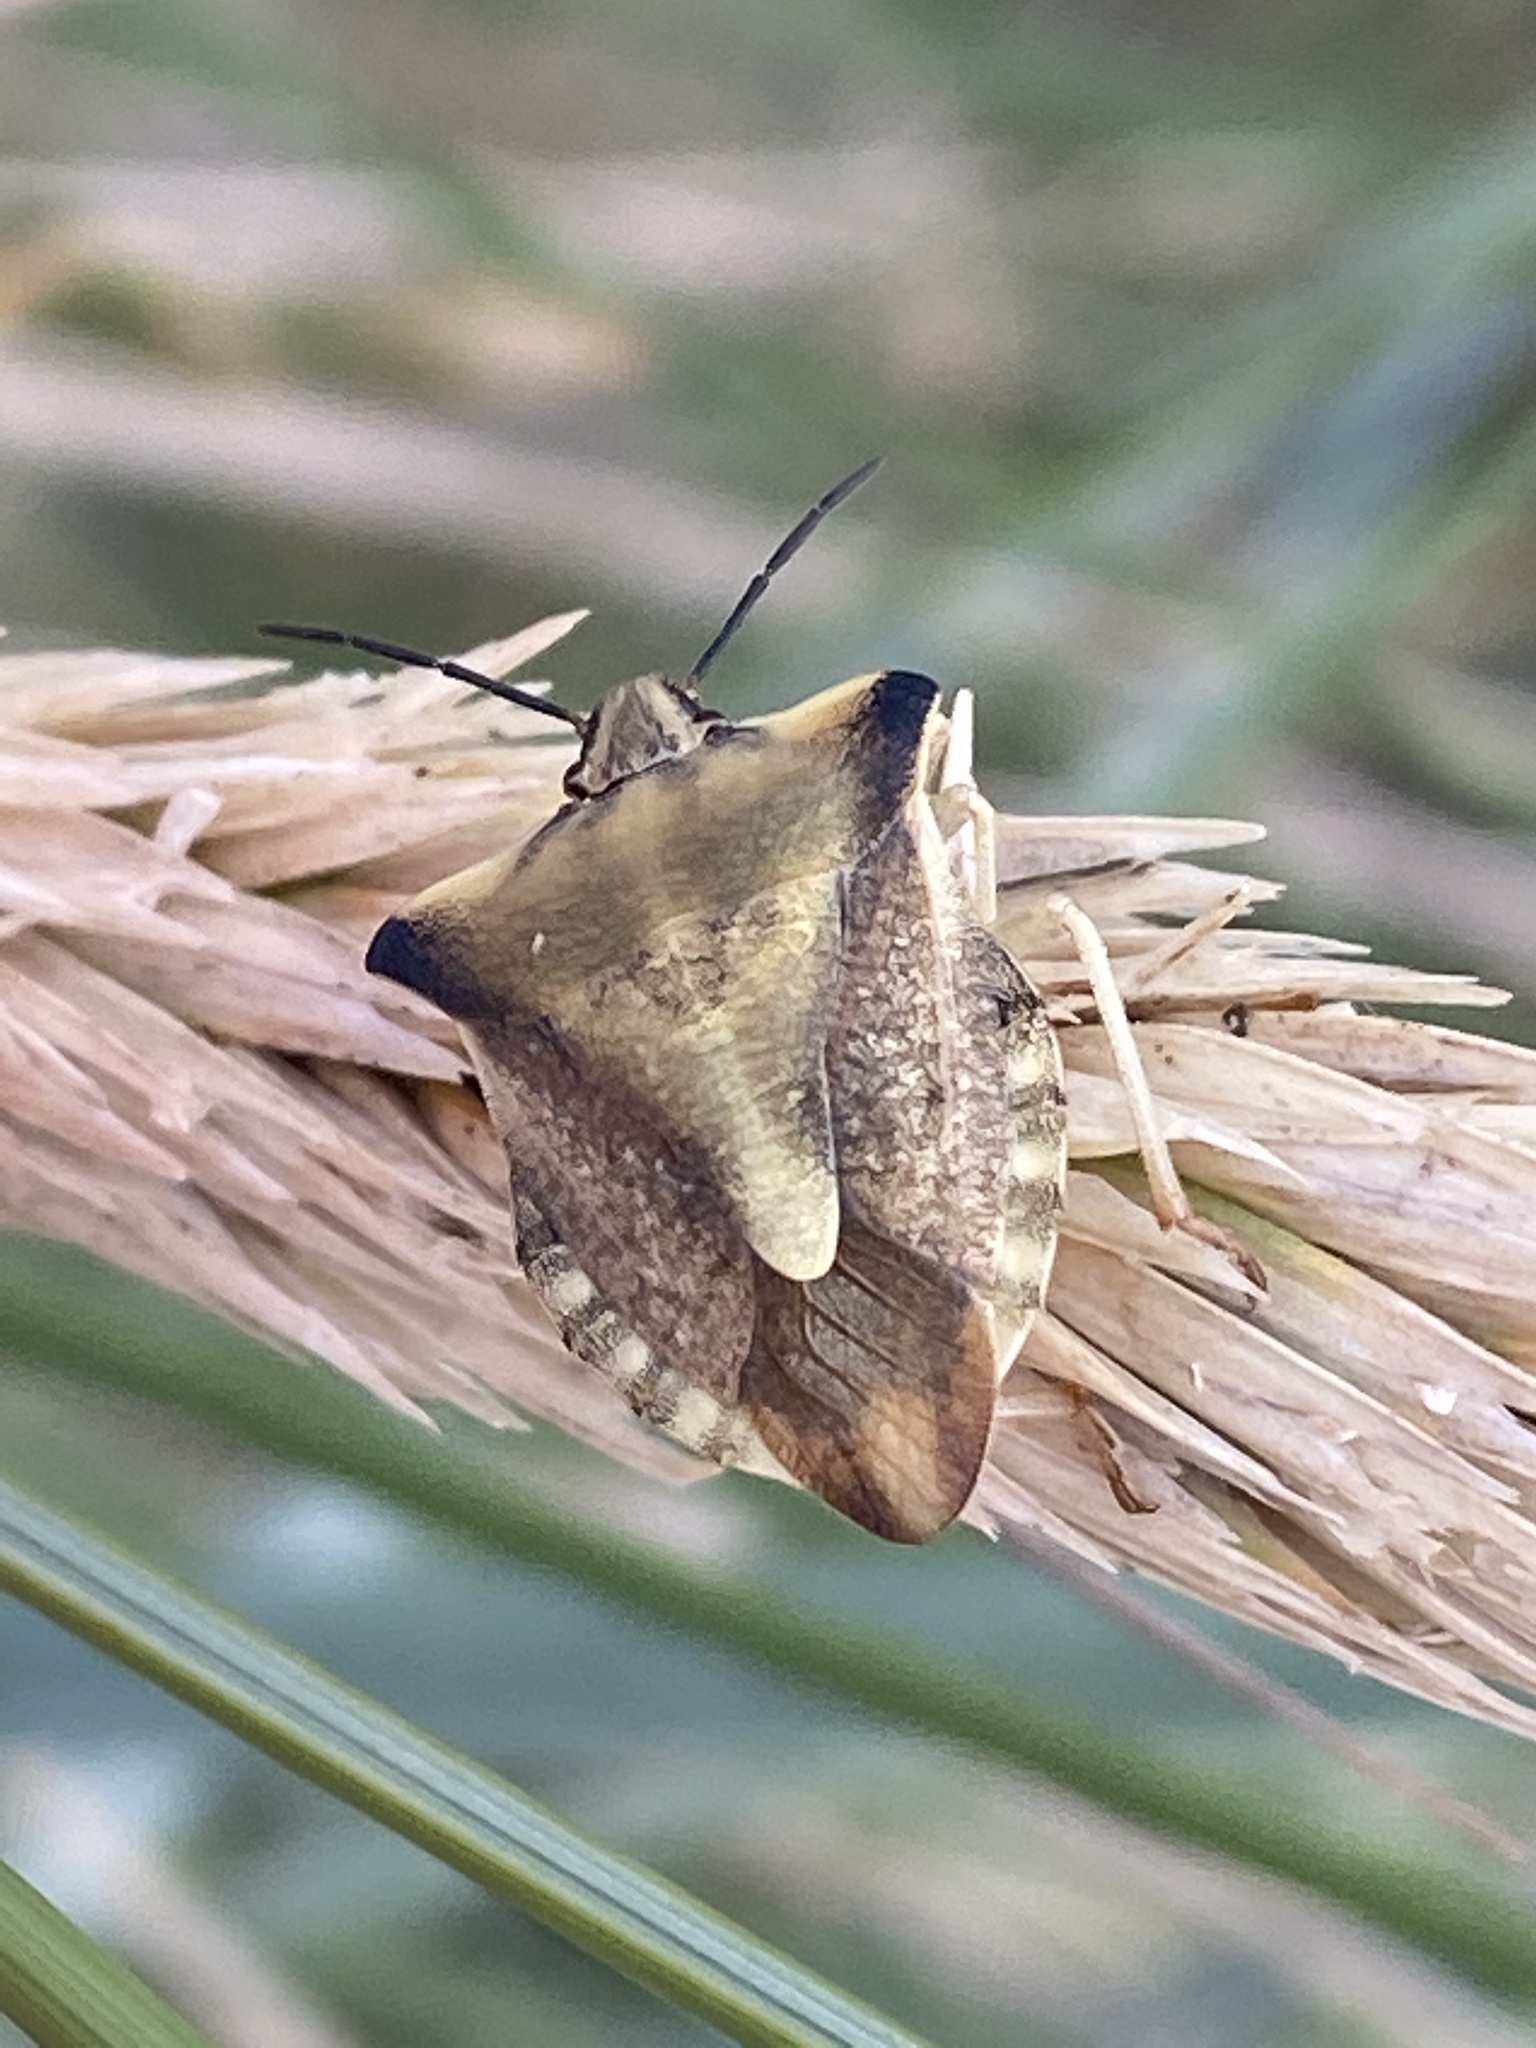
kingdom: Animalia
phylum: Arthropoda
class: Insecta
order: Hemiptera
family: Pentatomidae
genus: Carpocoris
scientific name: Carpocoris fuscispinus
